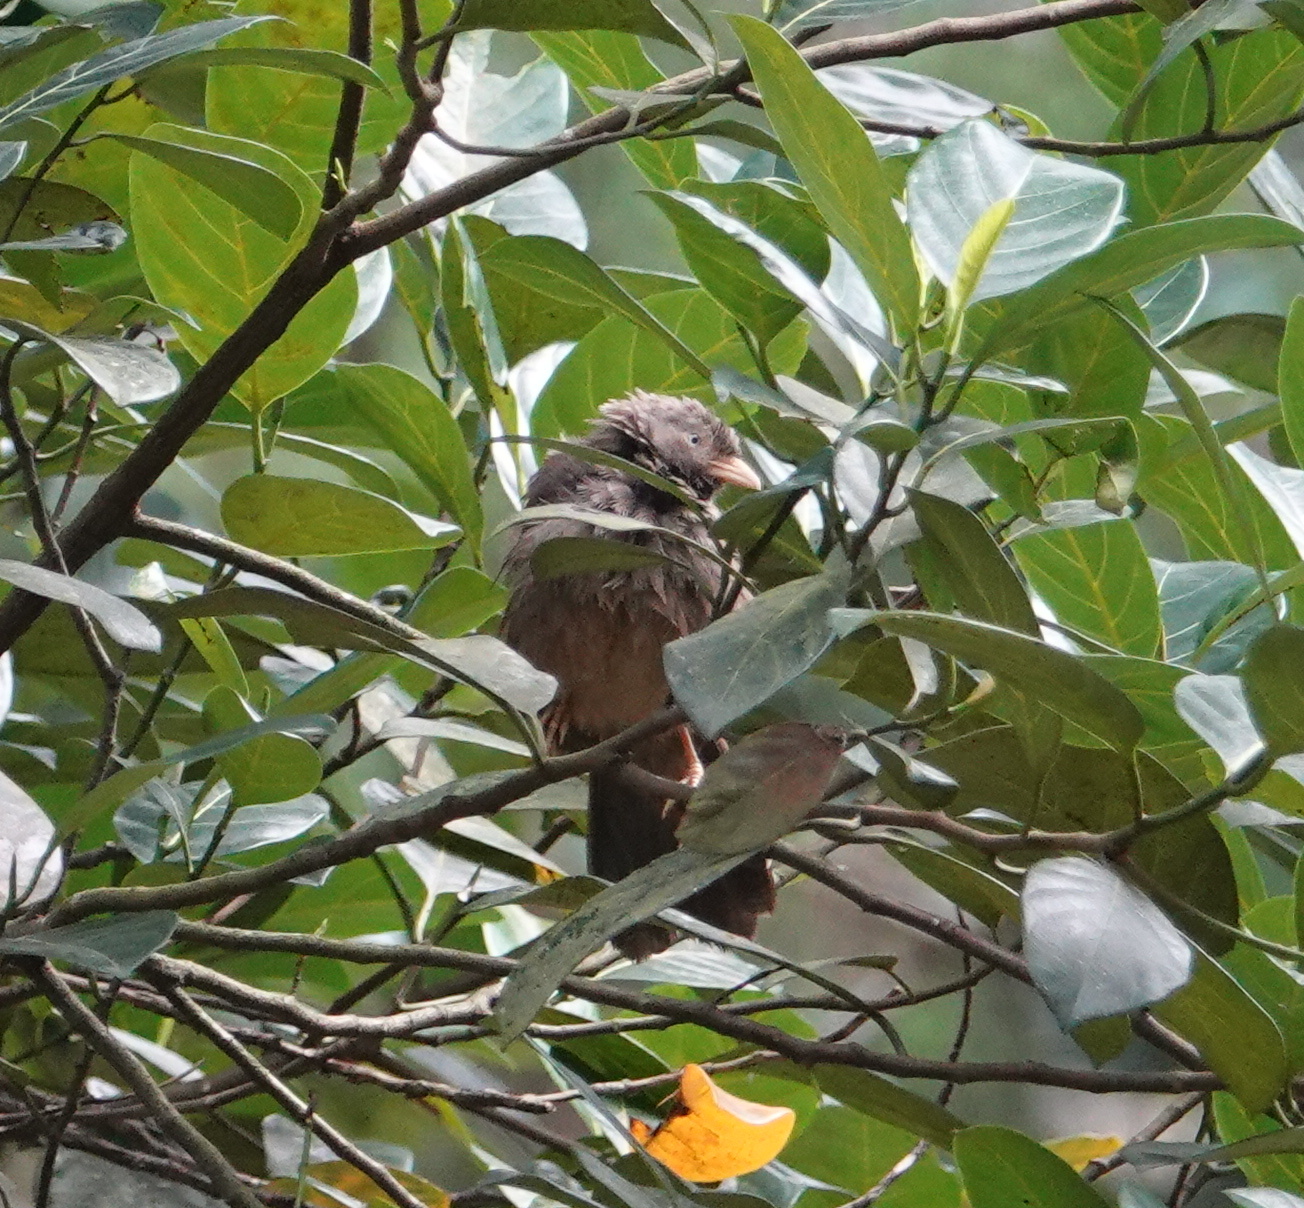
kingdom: Animalia
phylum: Chordata
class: Aves
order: Passeriformes
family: Leiothrichidae
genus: Turdoides
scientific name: Turdoides affinis
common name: Yellow-billed babbler
